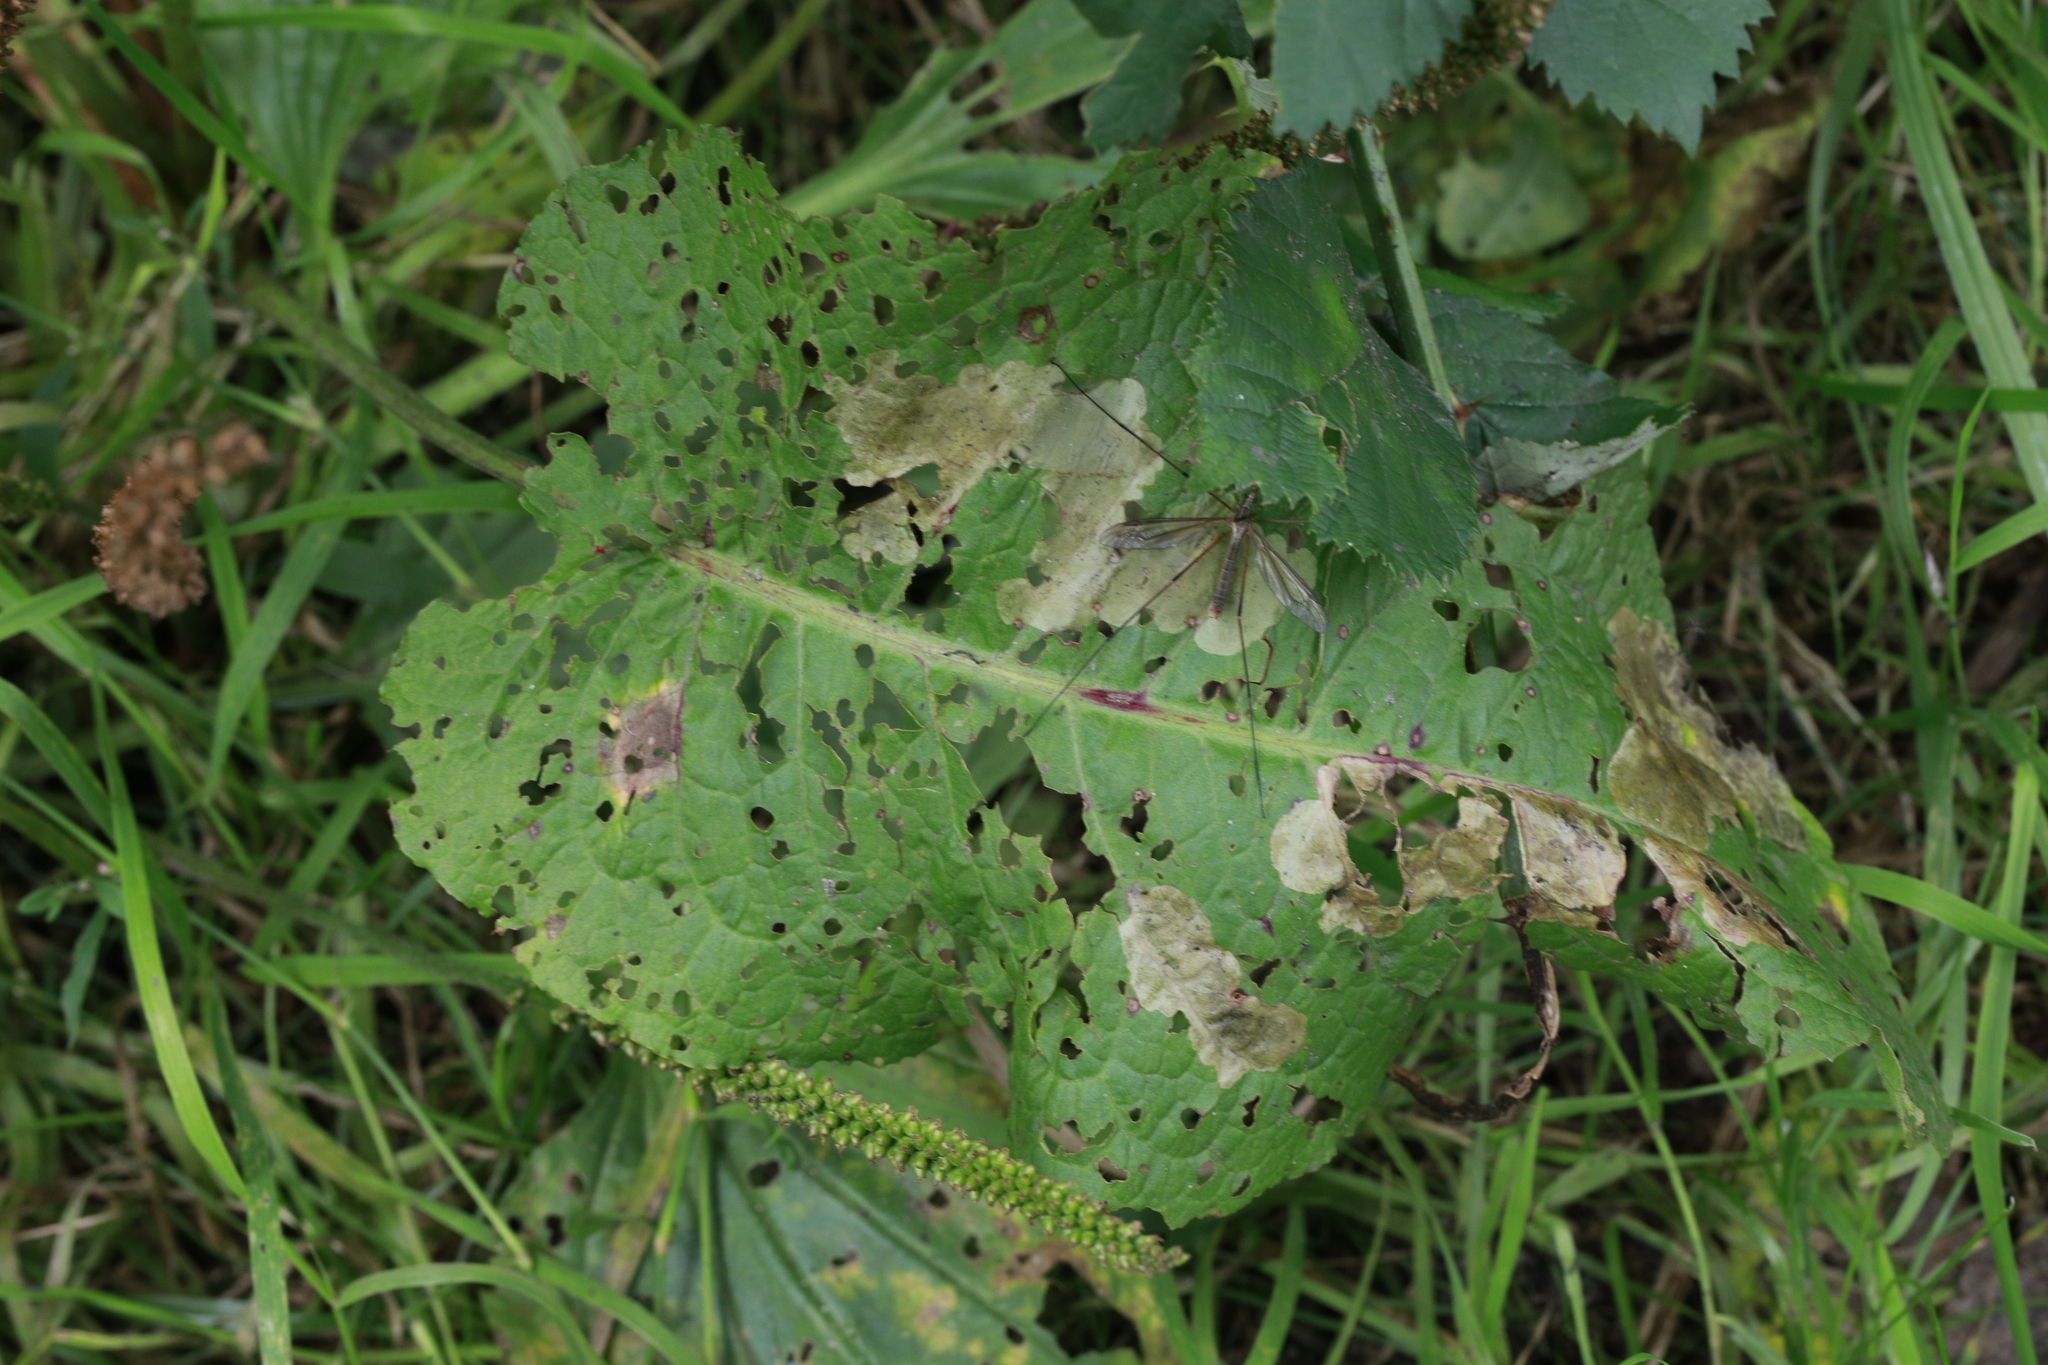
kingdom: Plantae
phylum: Tracheophyta
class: Magnoliopsida
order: Caryophyllales
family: Polygonaceae
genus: Rumex
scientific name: Rumex obtusifolius
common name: Bitter dock
